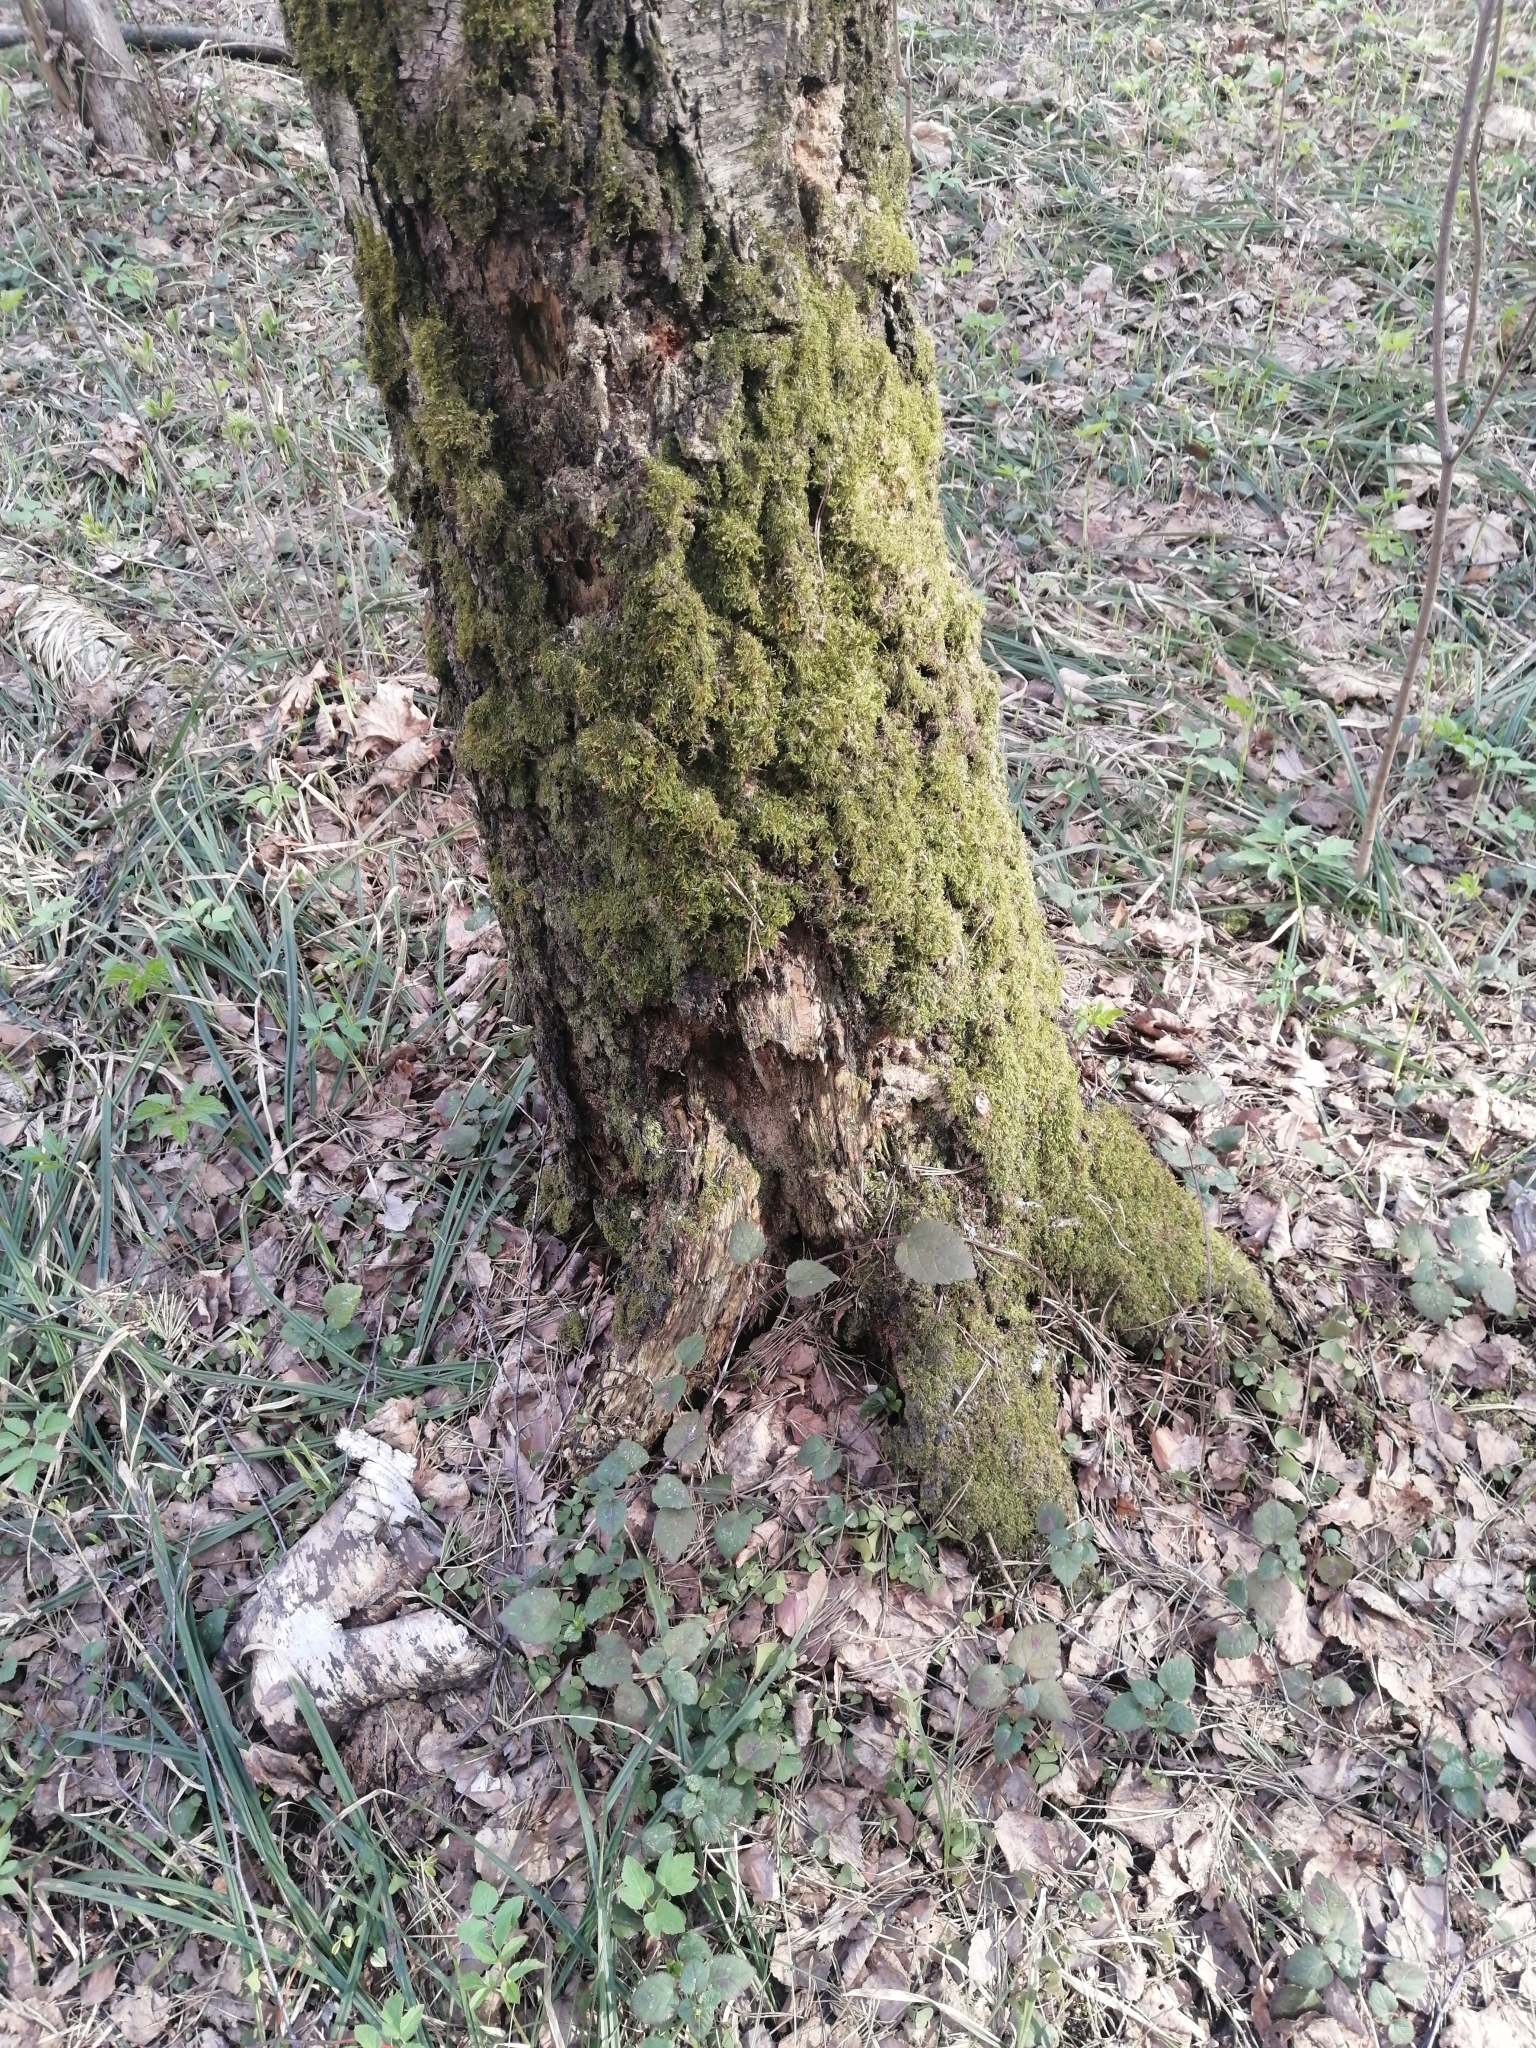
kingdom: Plantae
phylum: Tracheophyta
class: Magnoliopsida
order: Lamiales
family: Lamiaceae
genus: Lamium
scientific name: Lamium galeobdolon
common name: Yellow archangel
